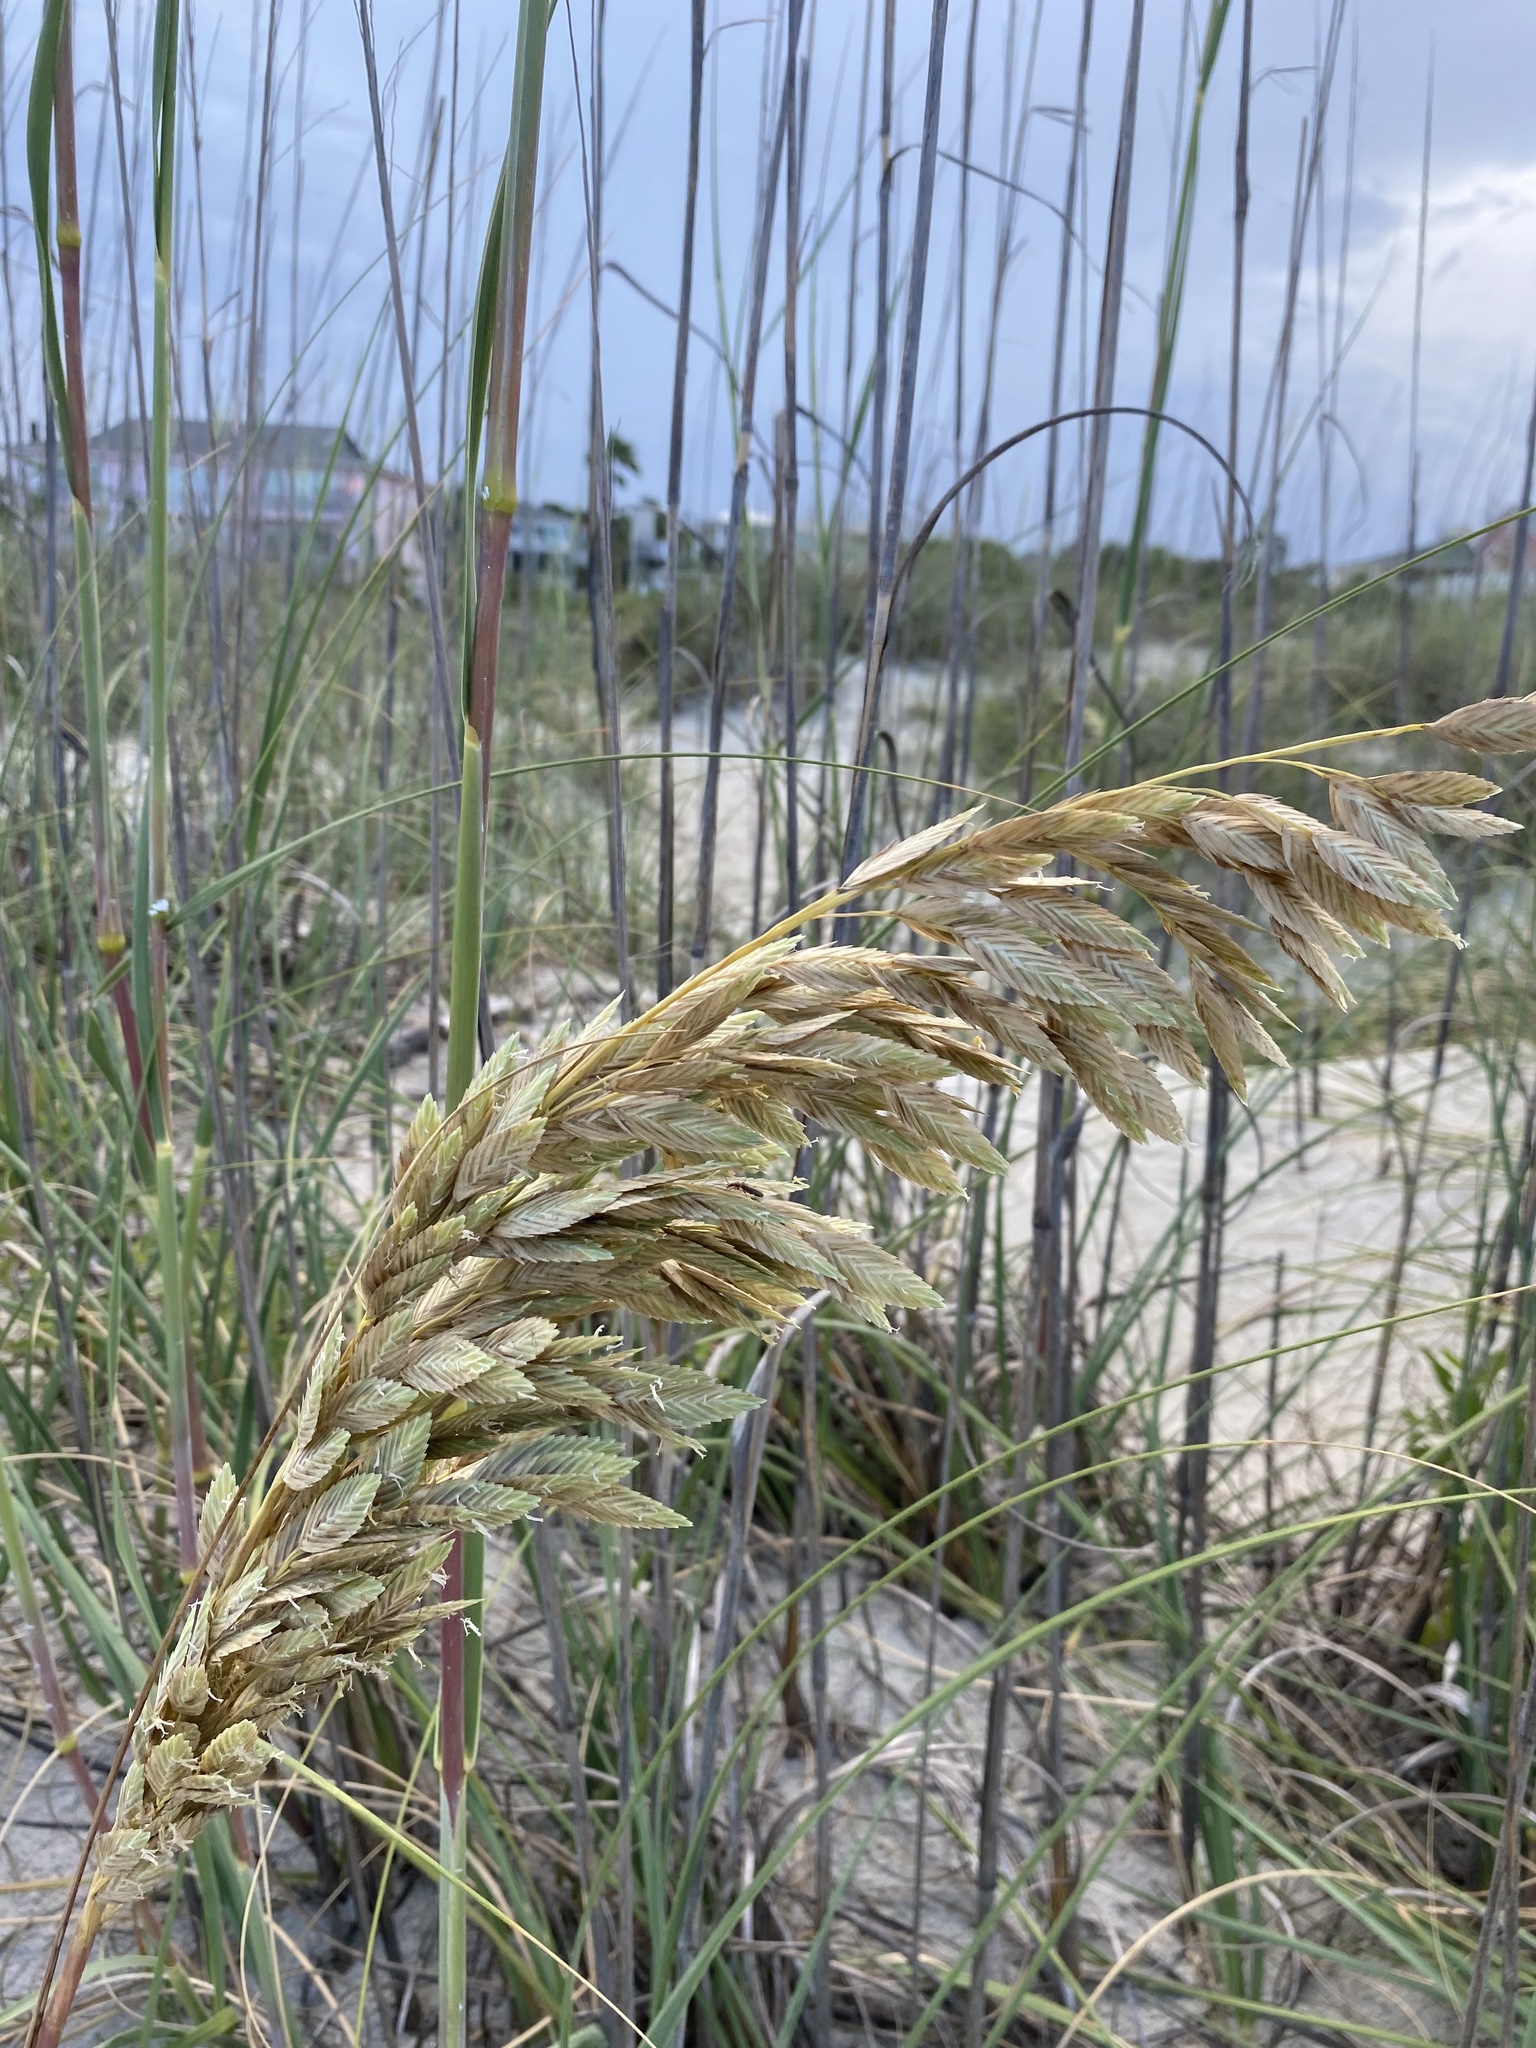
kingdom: Plantae
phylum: Tracheophyta
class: Liliopsida
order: Poales
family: Poaceae
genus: Uniola
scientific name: Uniola paniculata
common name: Seaside-oats
